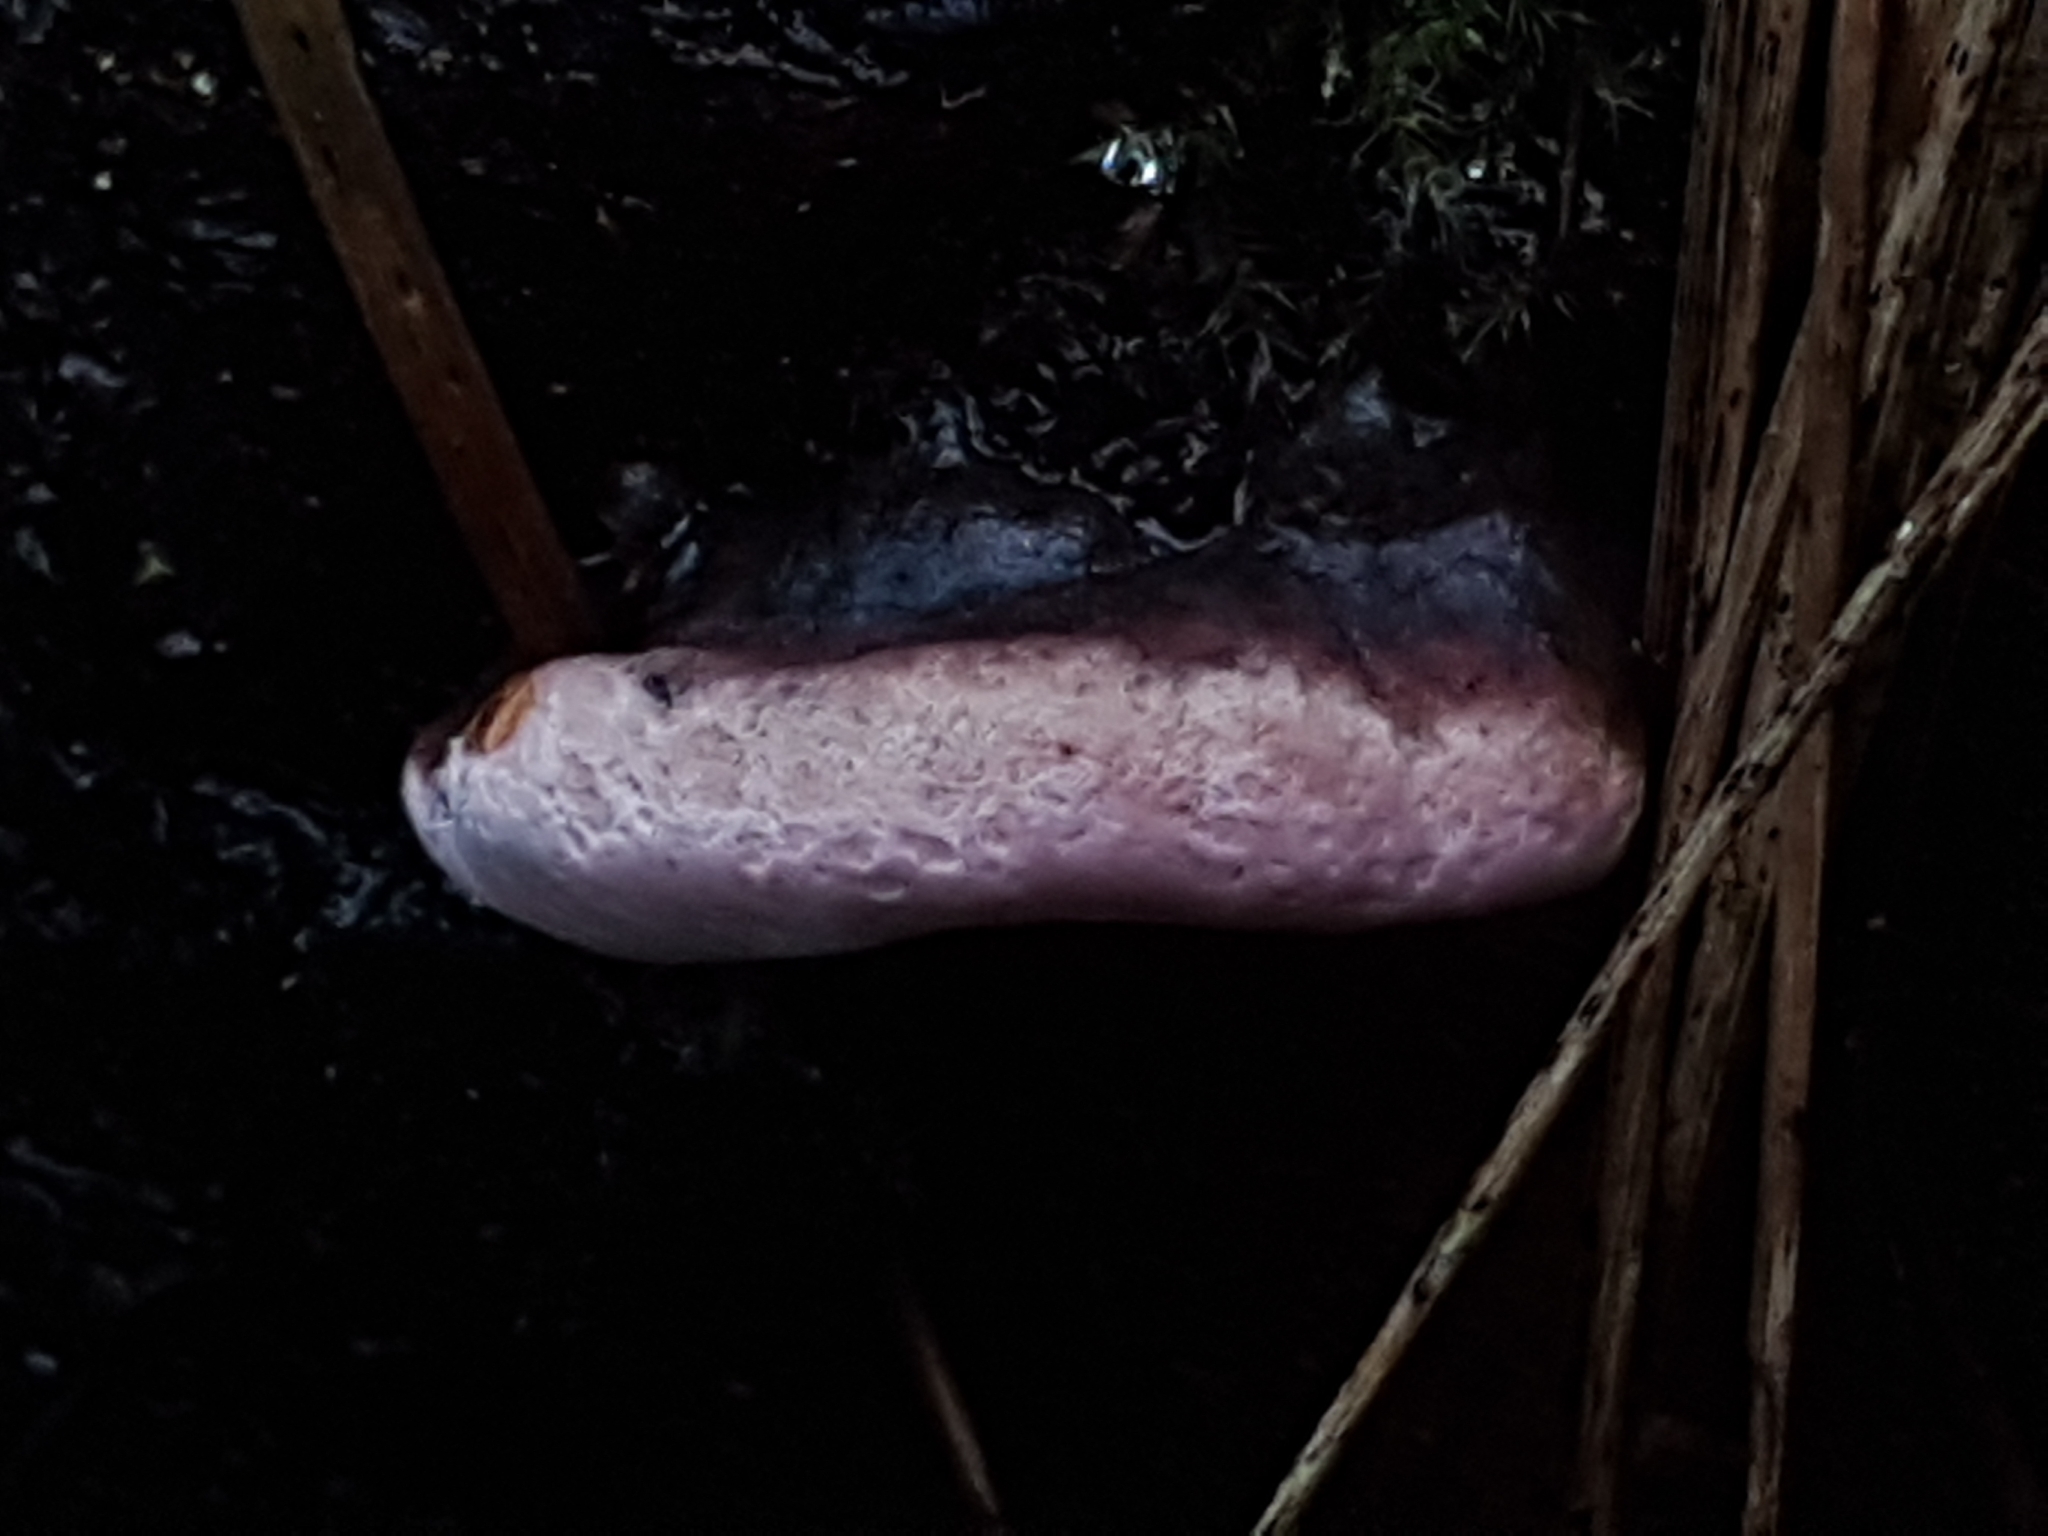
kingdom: Fungi
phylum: Basidiomycota
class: Agaricomycetes
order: Polyporales
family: Fomitopsidaceae
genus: Rhodofomes
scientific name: Rhodofomes roseus
